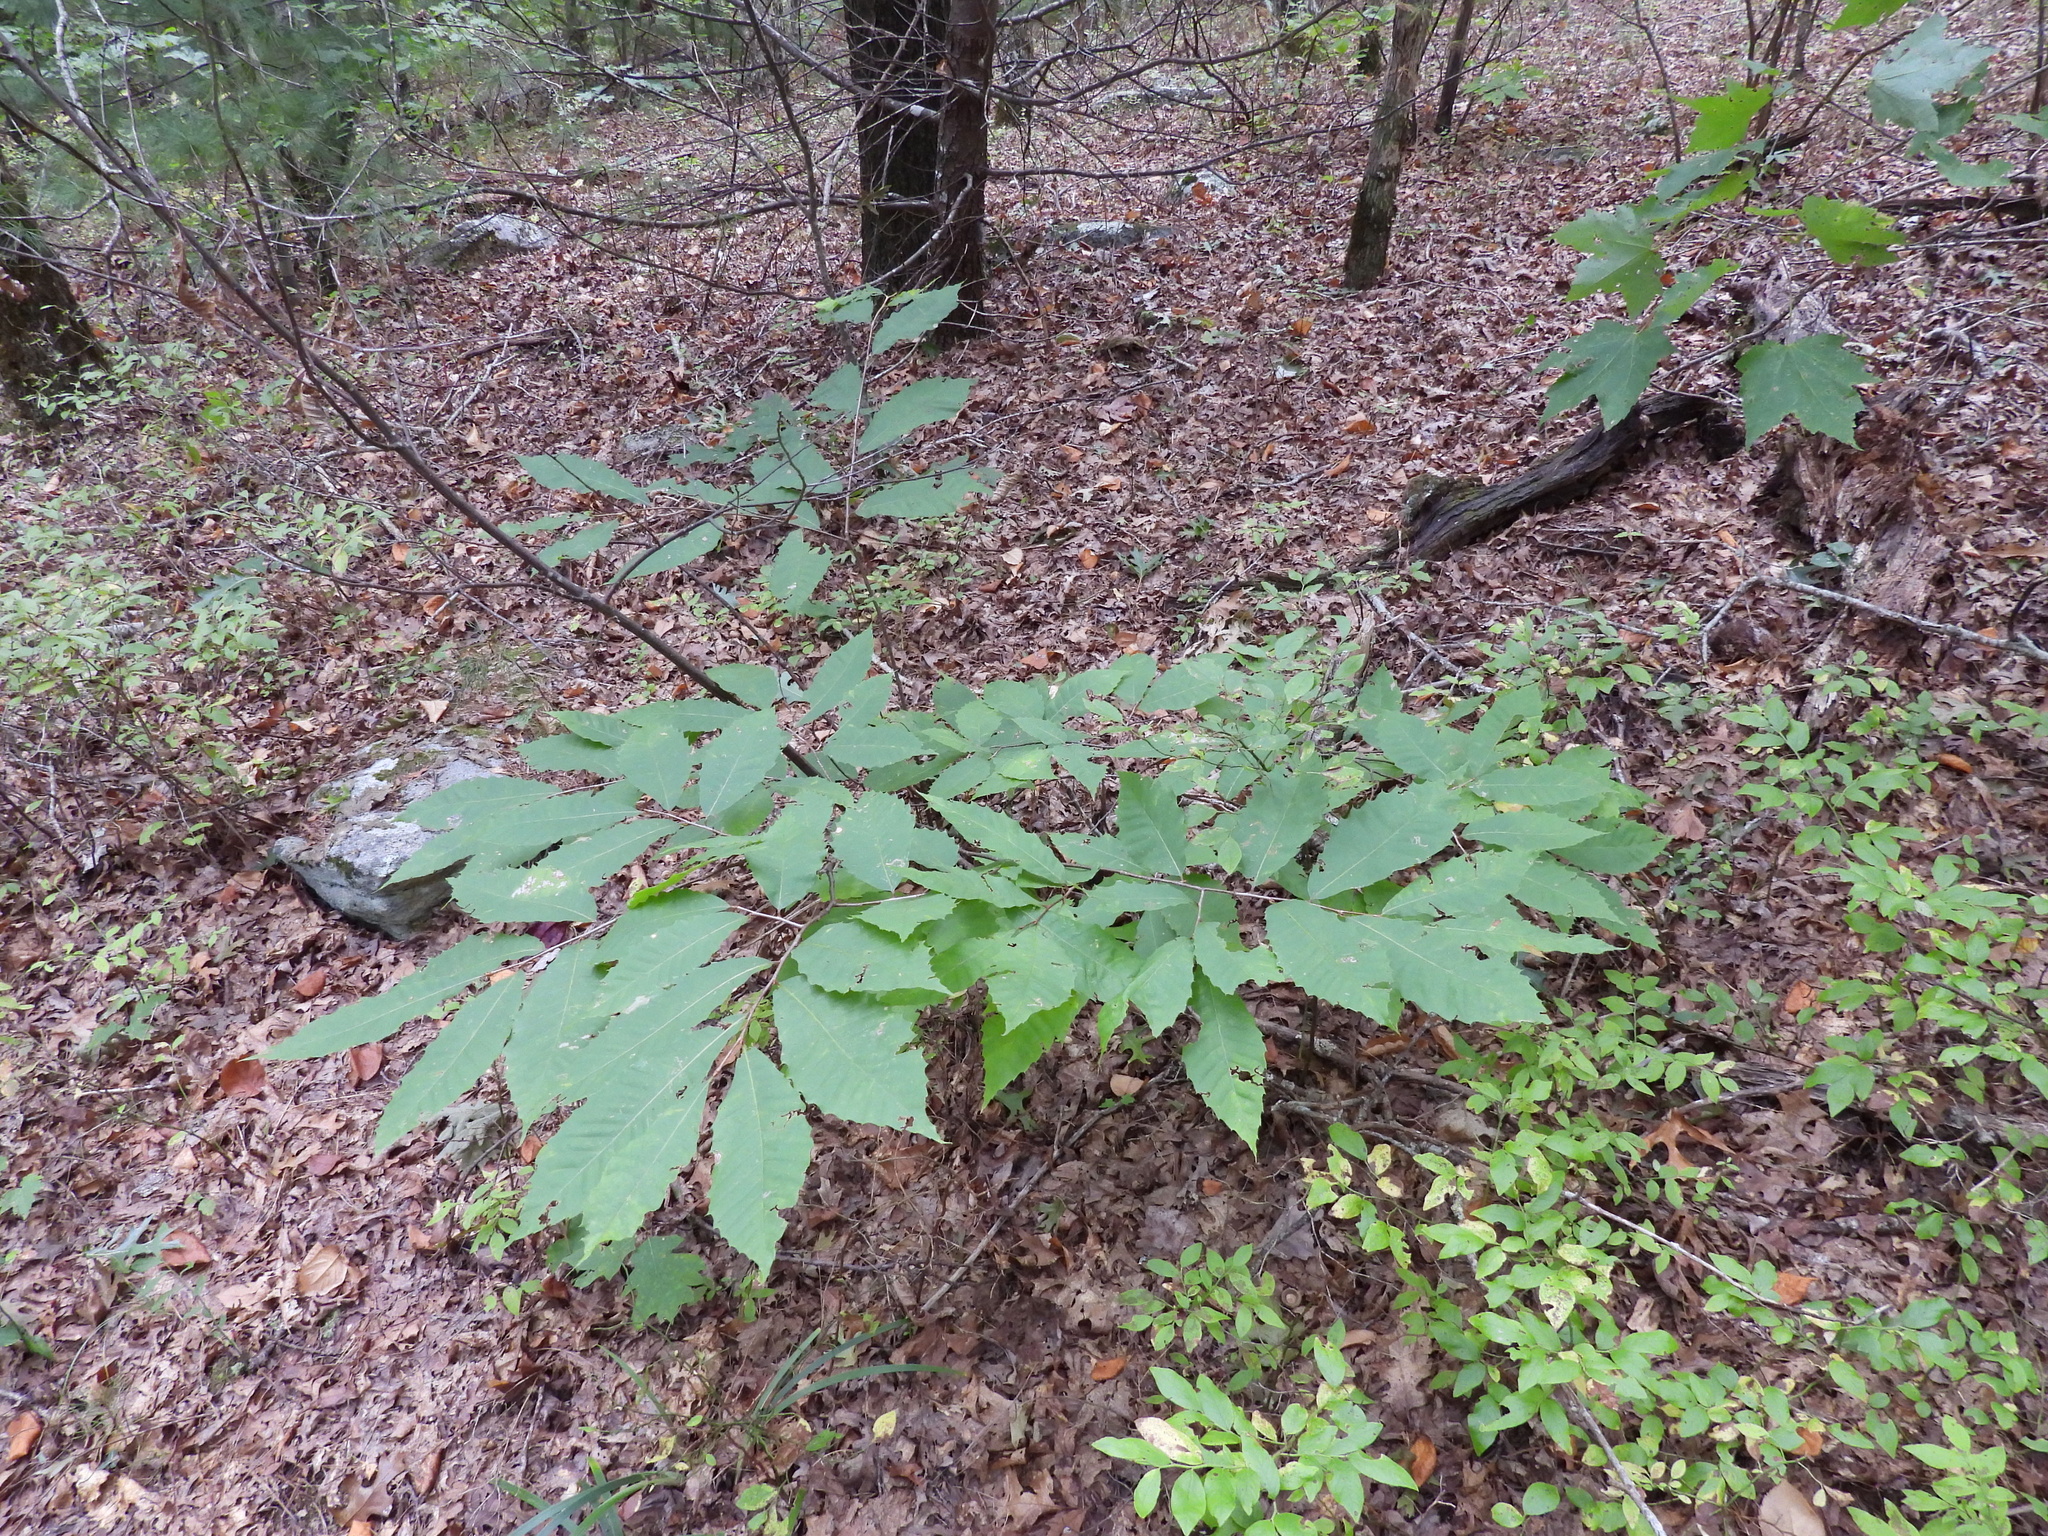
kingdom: Plantae
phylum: Tracheophyta
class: Magnoliopsida
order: Fagales
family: Fagaceae
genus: Castanea
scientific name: Castanea dentata
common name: American chestnut
